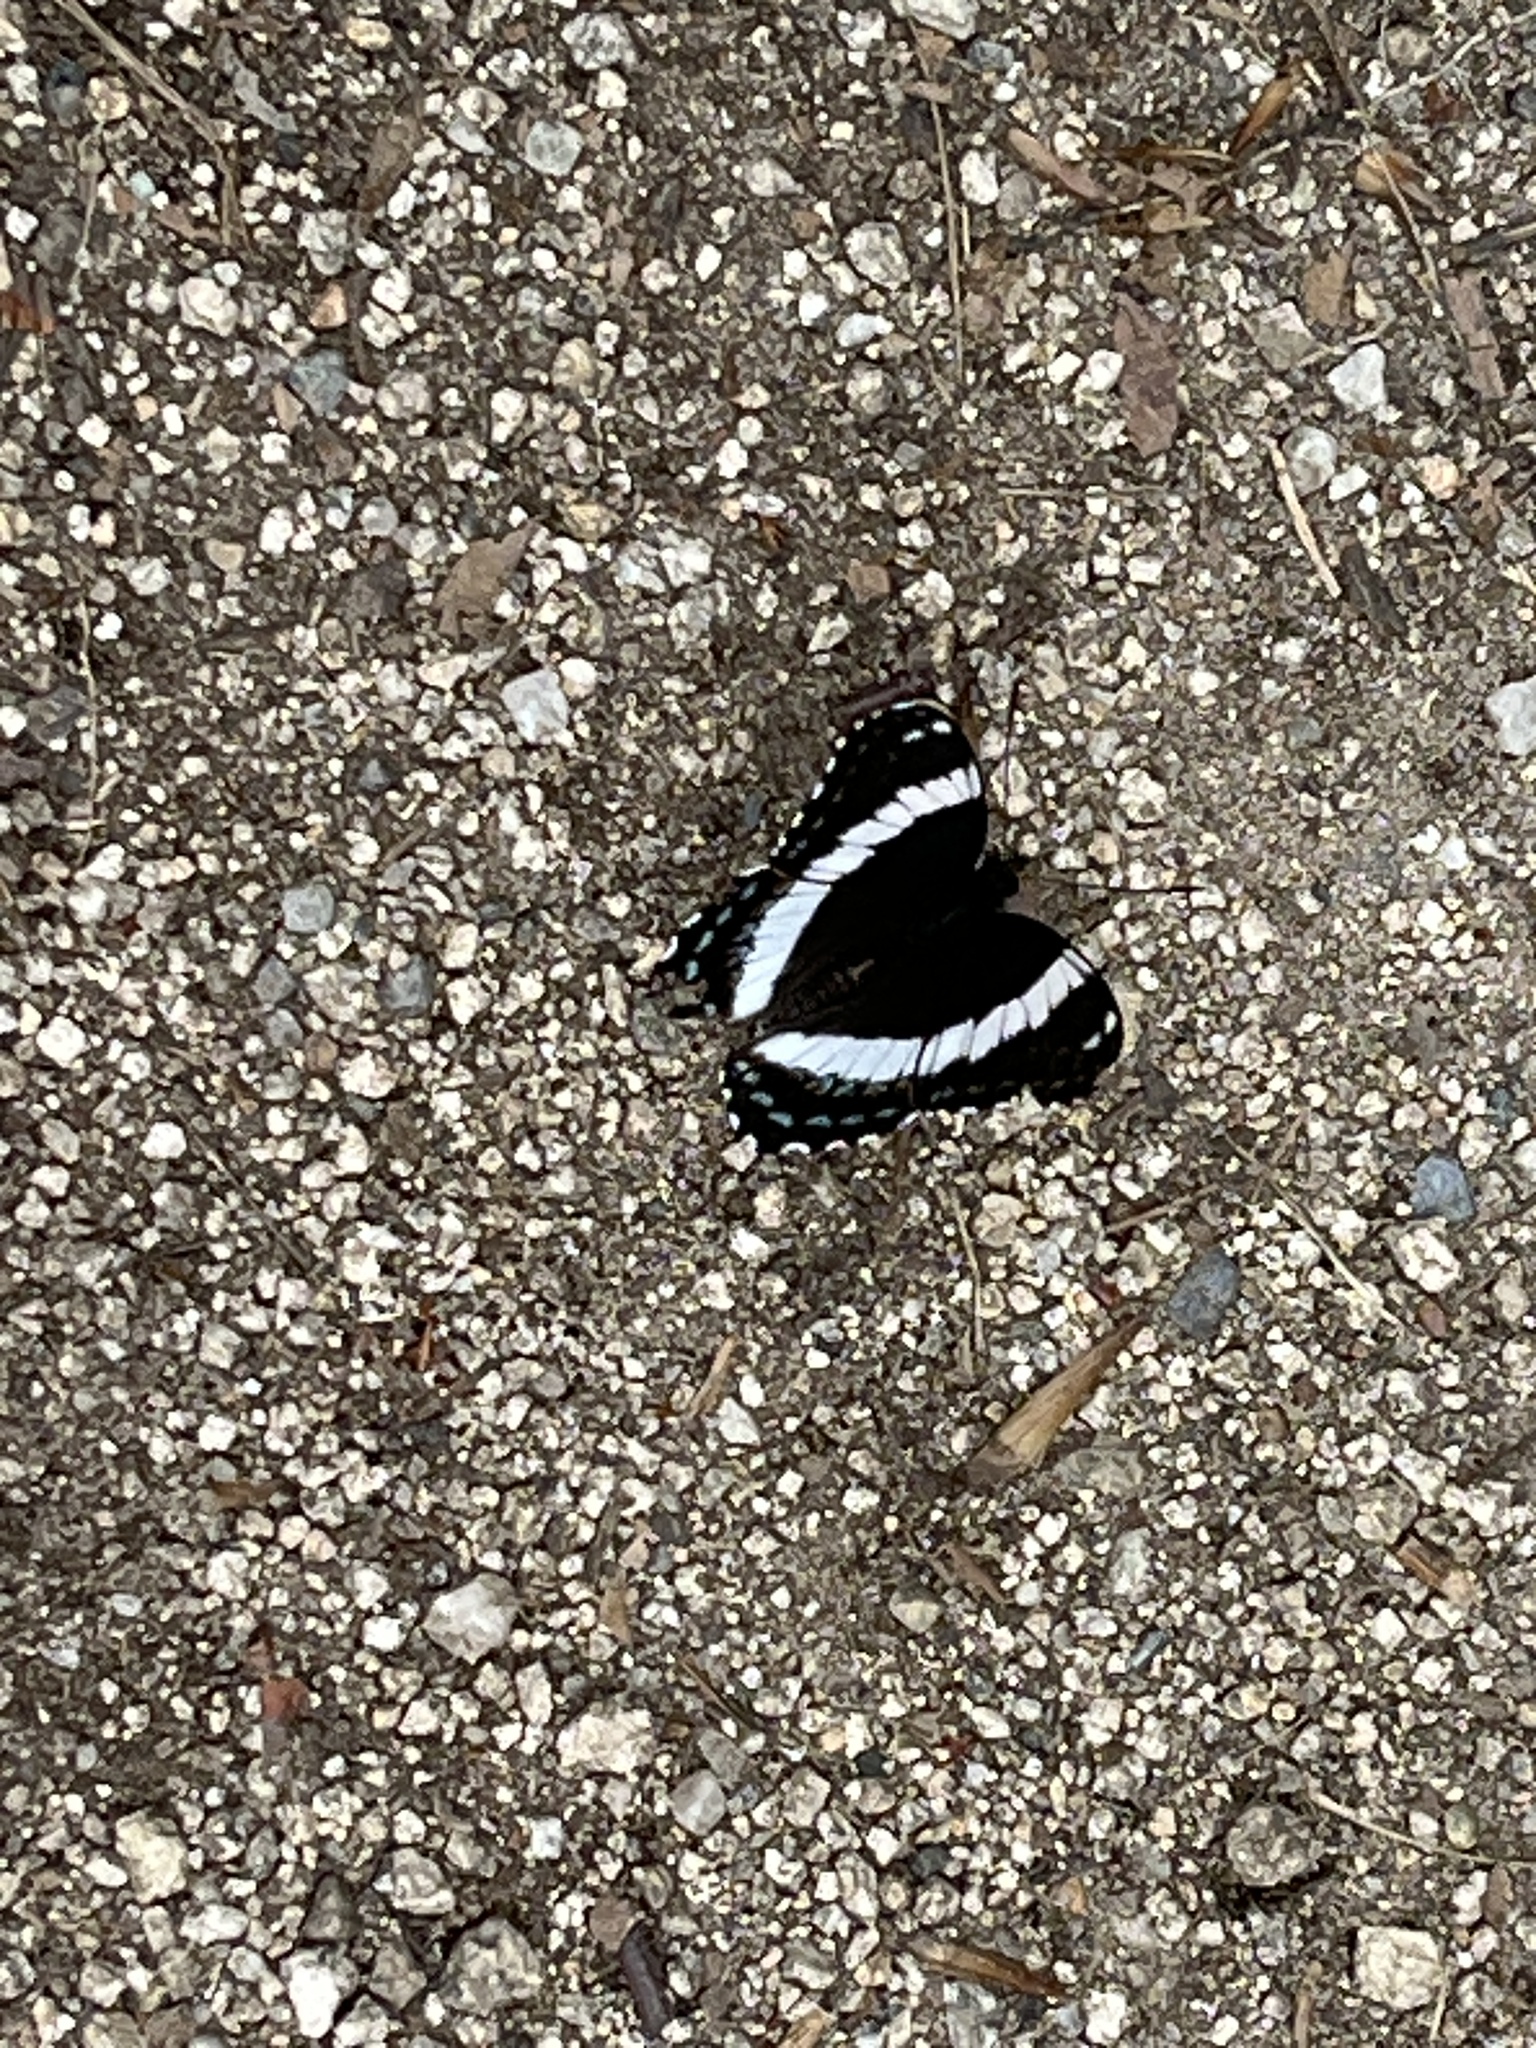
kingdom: Animalia
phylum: Arthropoda
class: Insecta
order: Lepidoptera
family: Nymphalidae
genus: Limenitis
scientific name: Limenitis arthemis
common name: Red-spotted admiral
